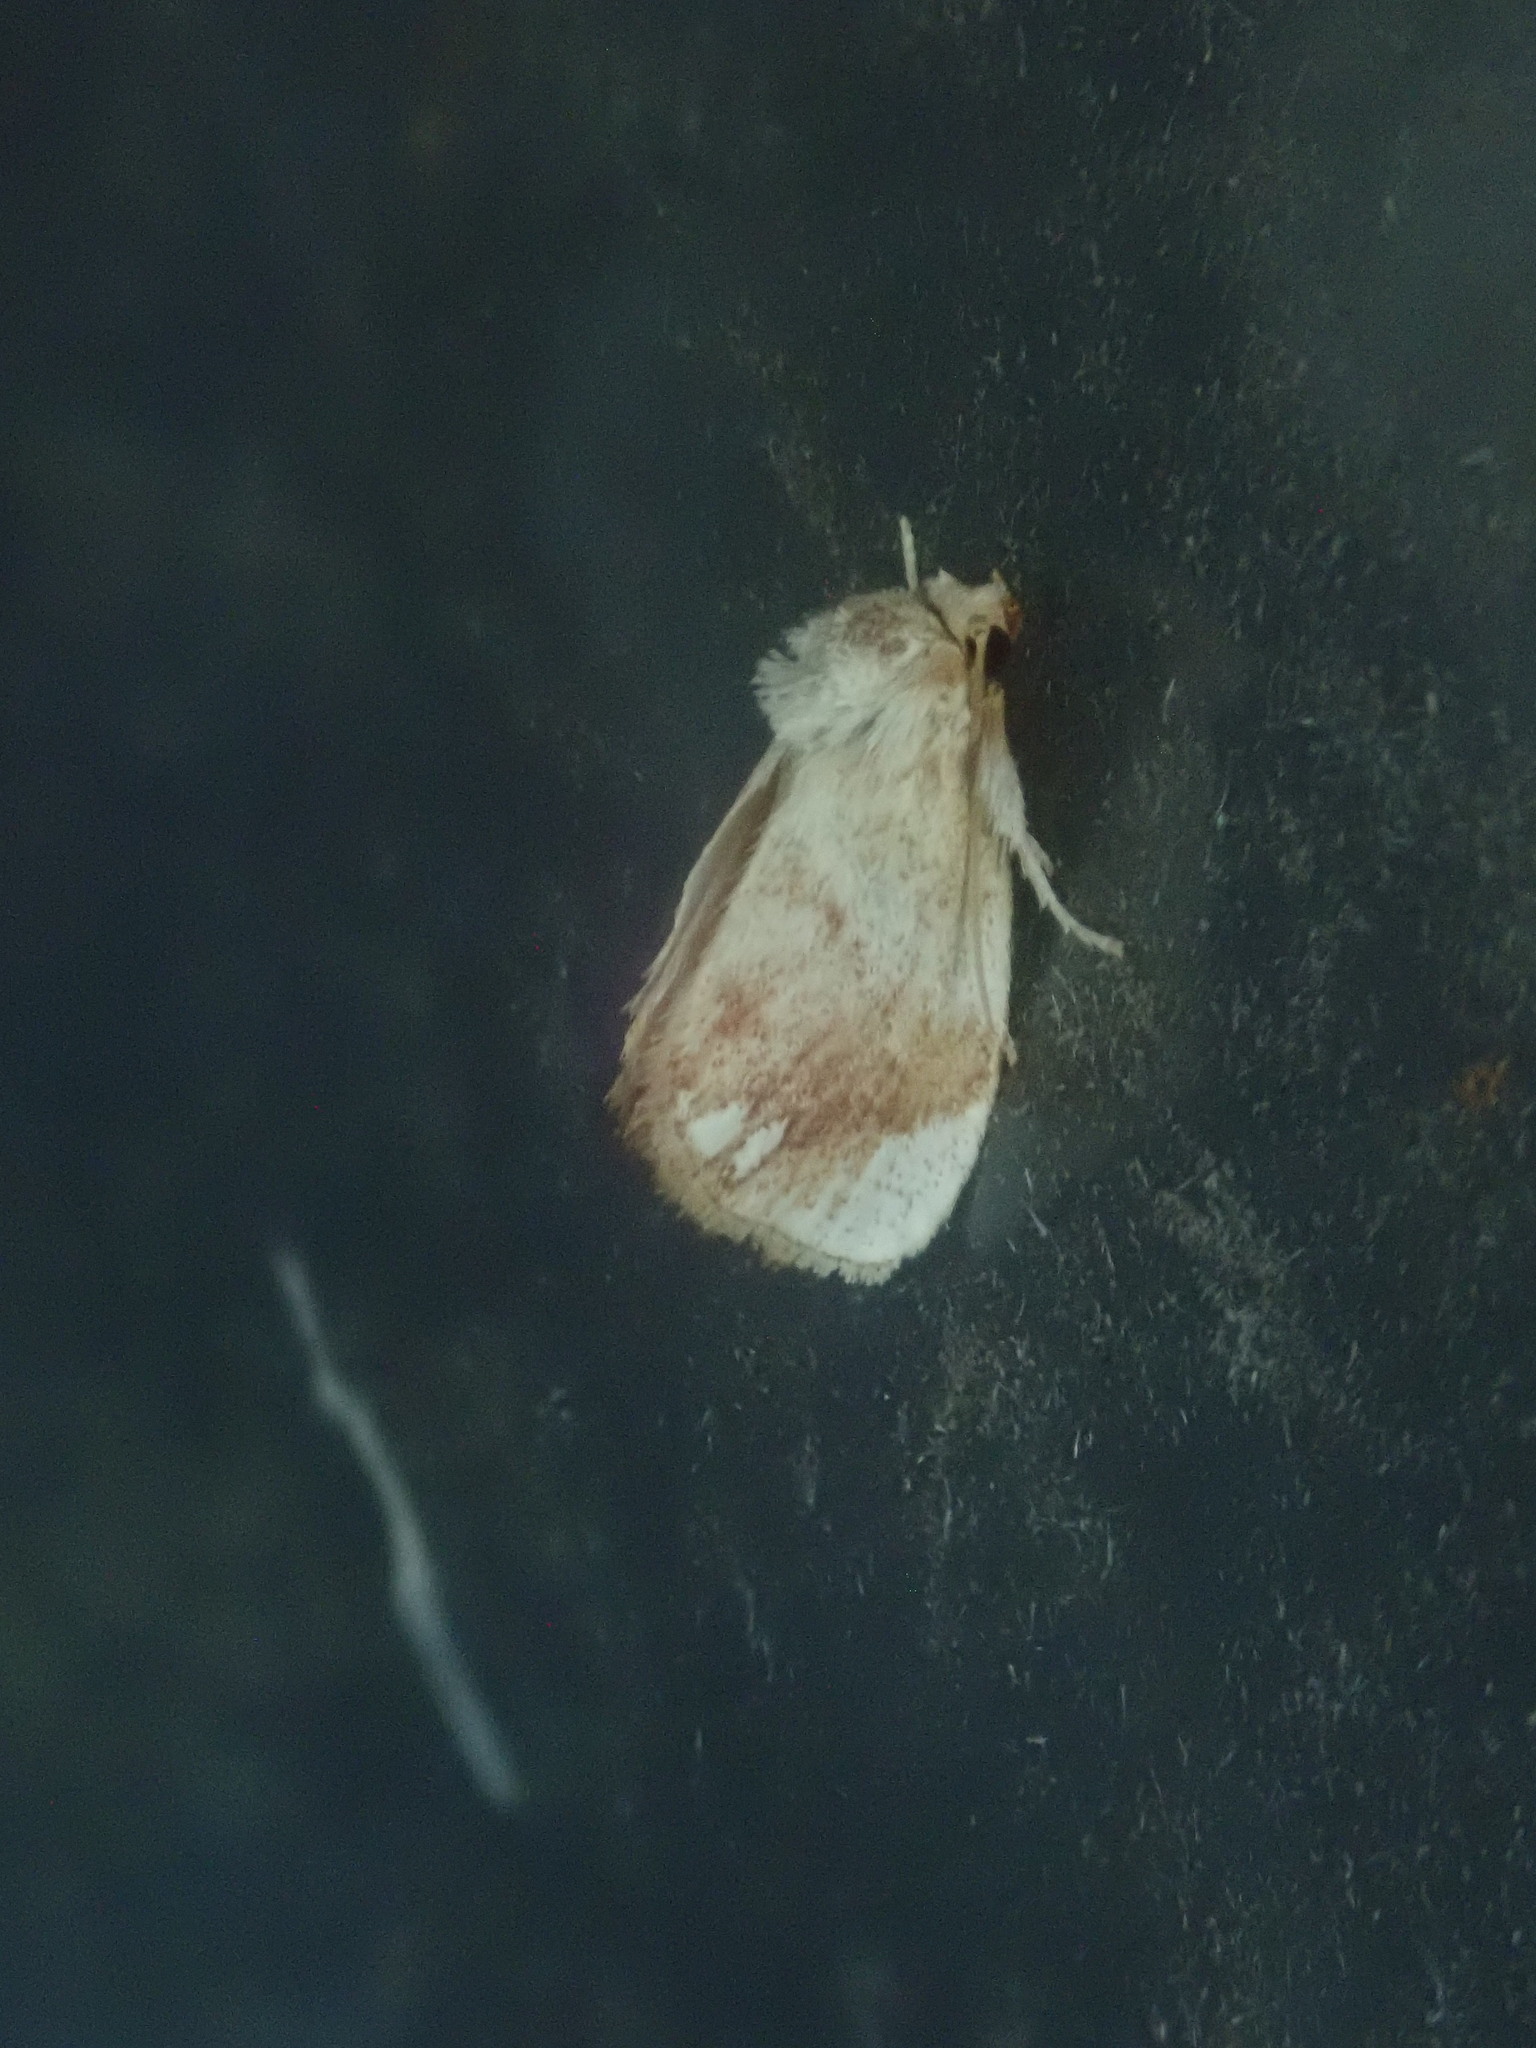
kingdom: Animalia
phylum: Arthropoda
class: Insecta
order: Lepidoptera
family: Limacodidae
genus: Packardia
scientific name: Packardia geminata
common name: Jeweled tailed slug moth
